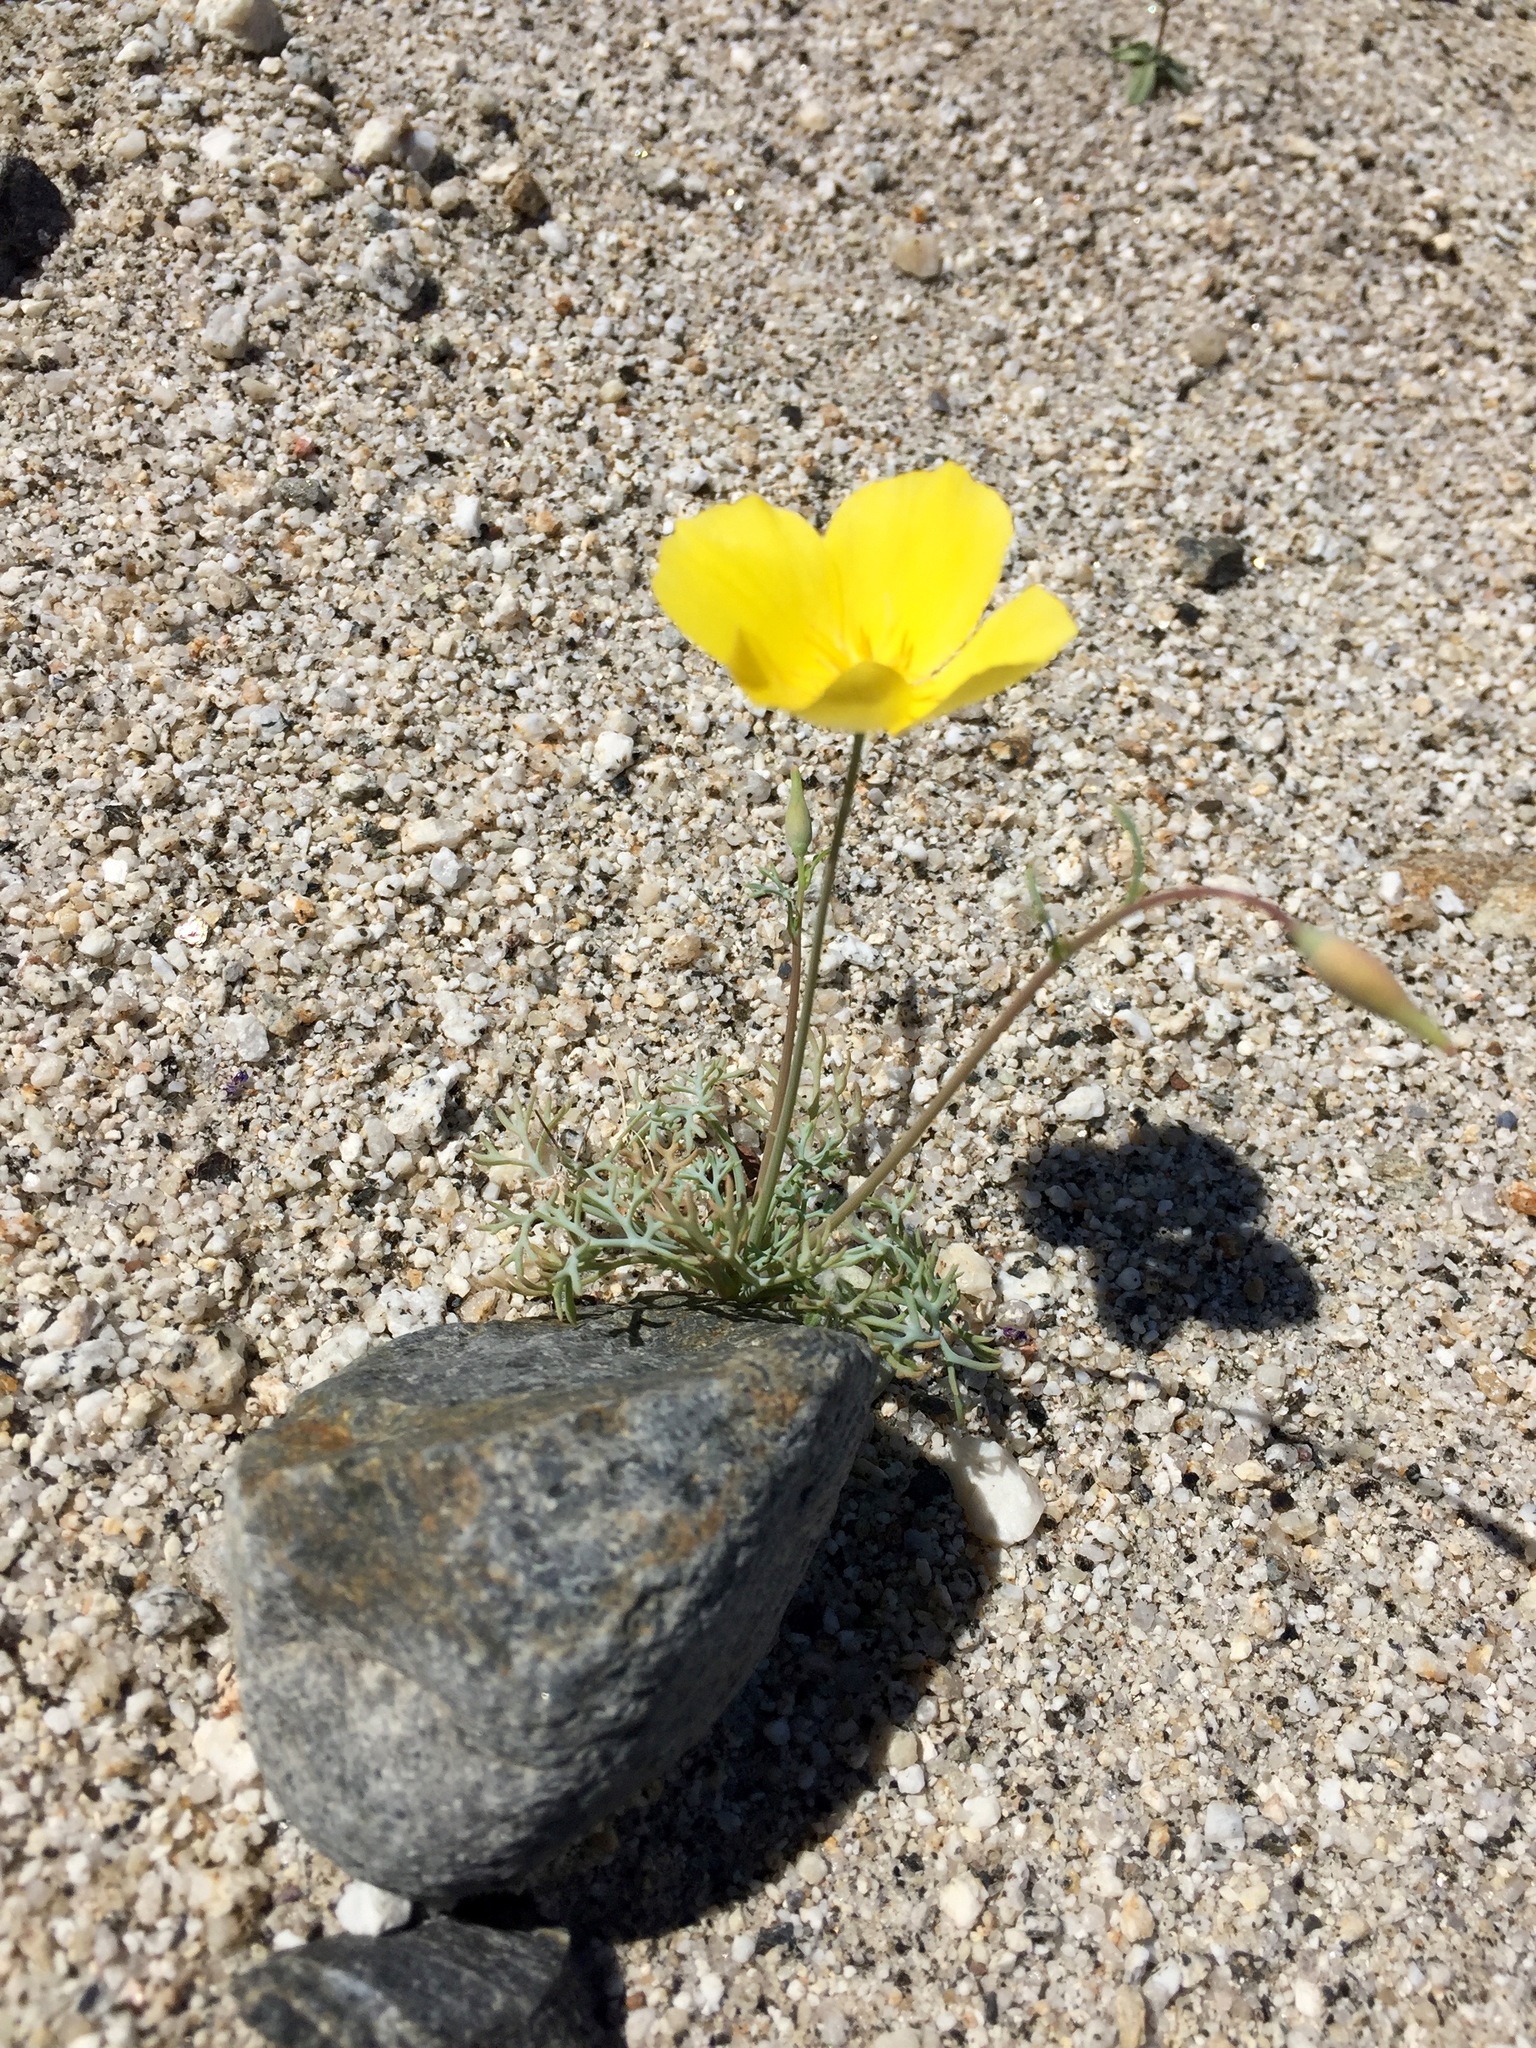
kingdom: Plantae
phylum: Tracheophyta
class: Magnoliopsida
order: Ranunculales
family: Papaveraceae
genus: Eschscholzia
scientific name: Eschscholzia parishii
